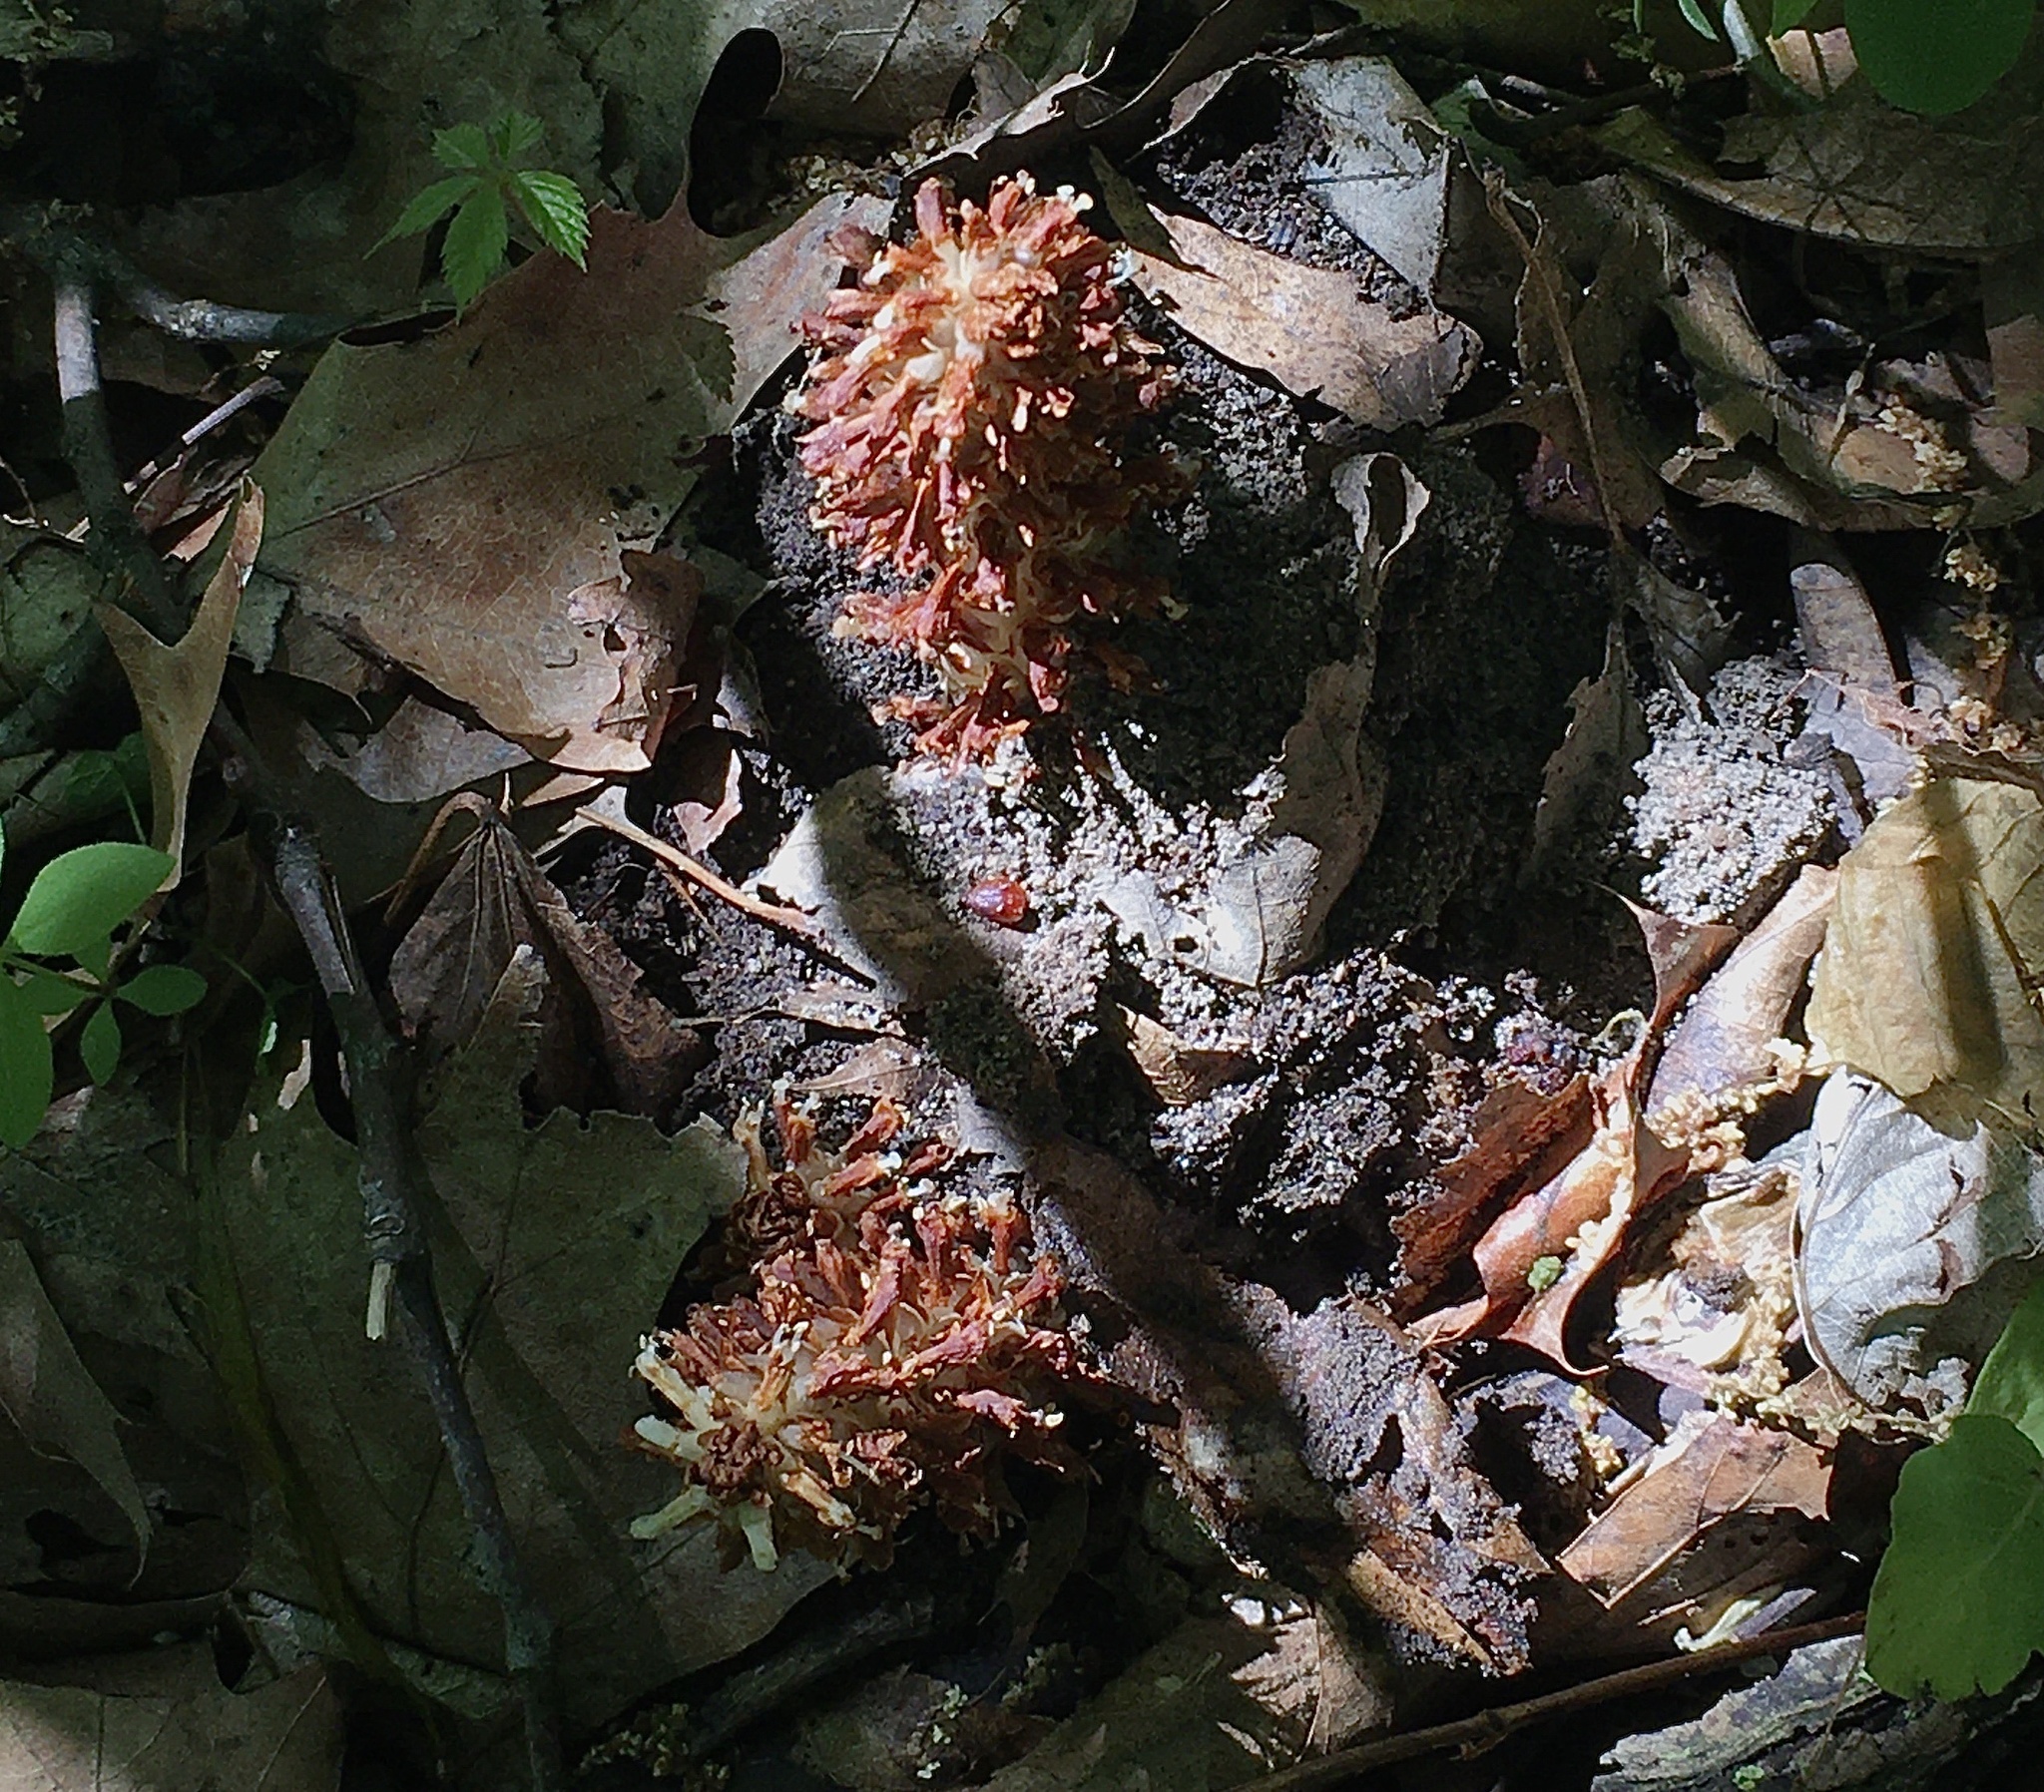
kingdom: Plantae
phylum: Tracheophyta
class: Magnoliopsida
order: Lamiales
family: Orobanchaceae
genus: Conopholis
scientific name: Conopholis americana
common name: American cancer-root
